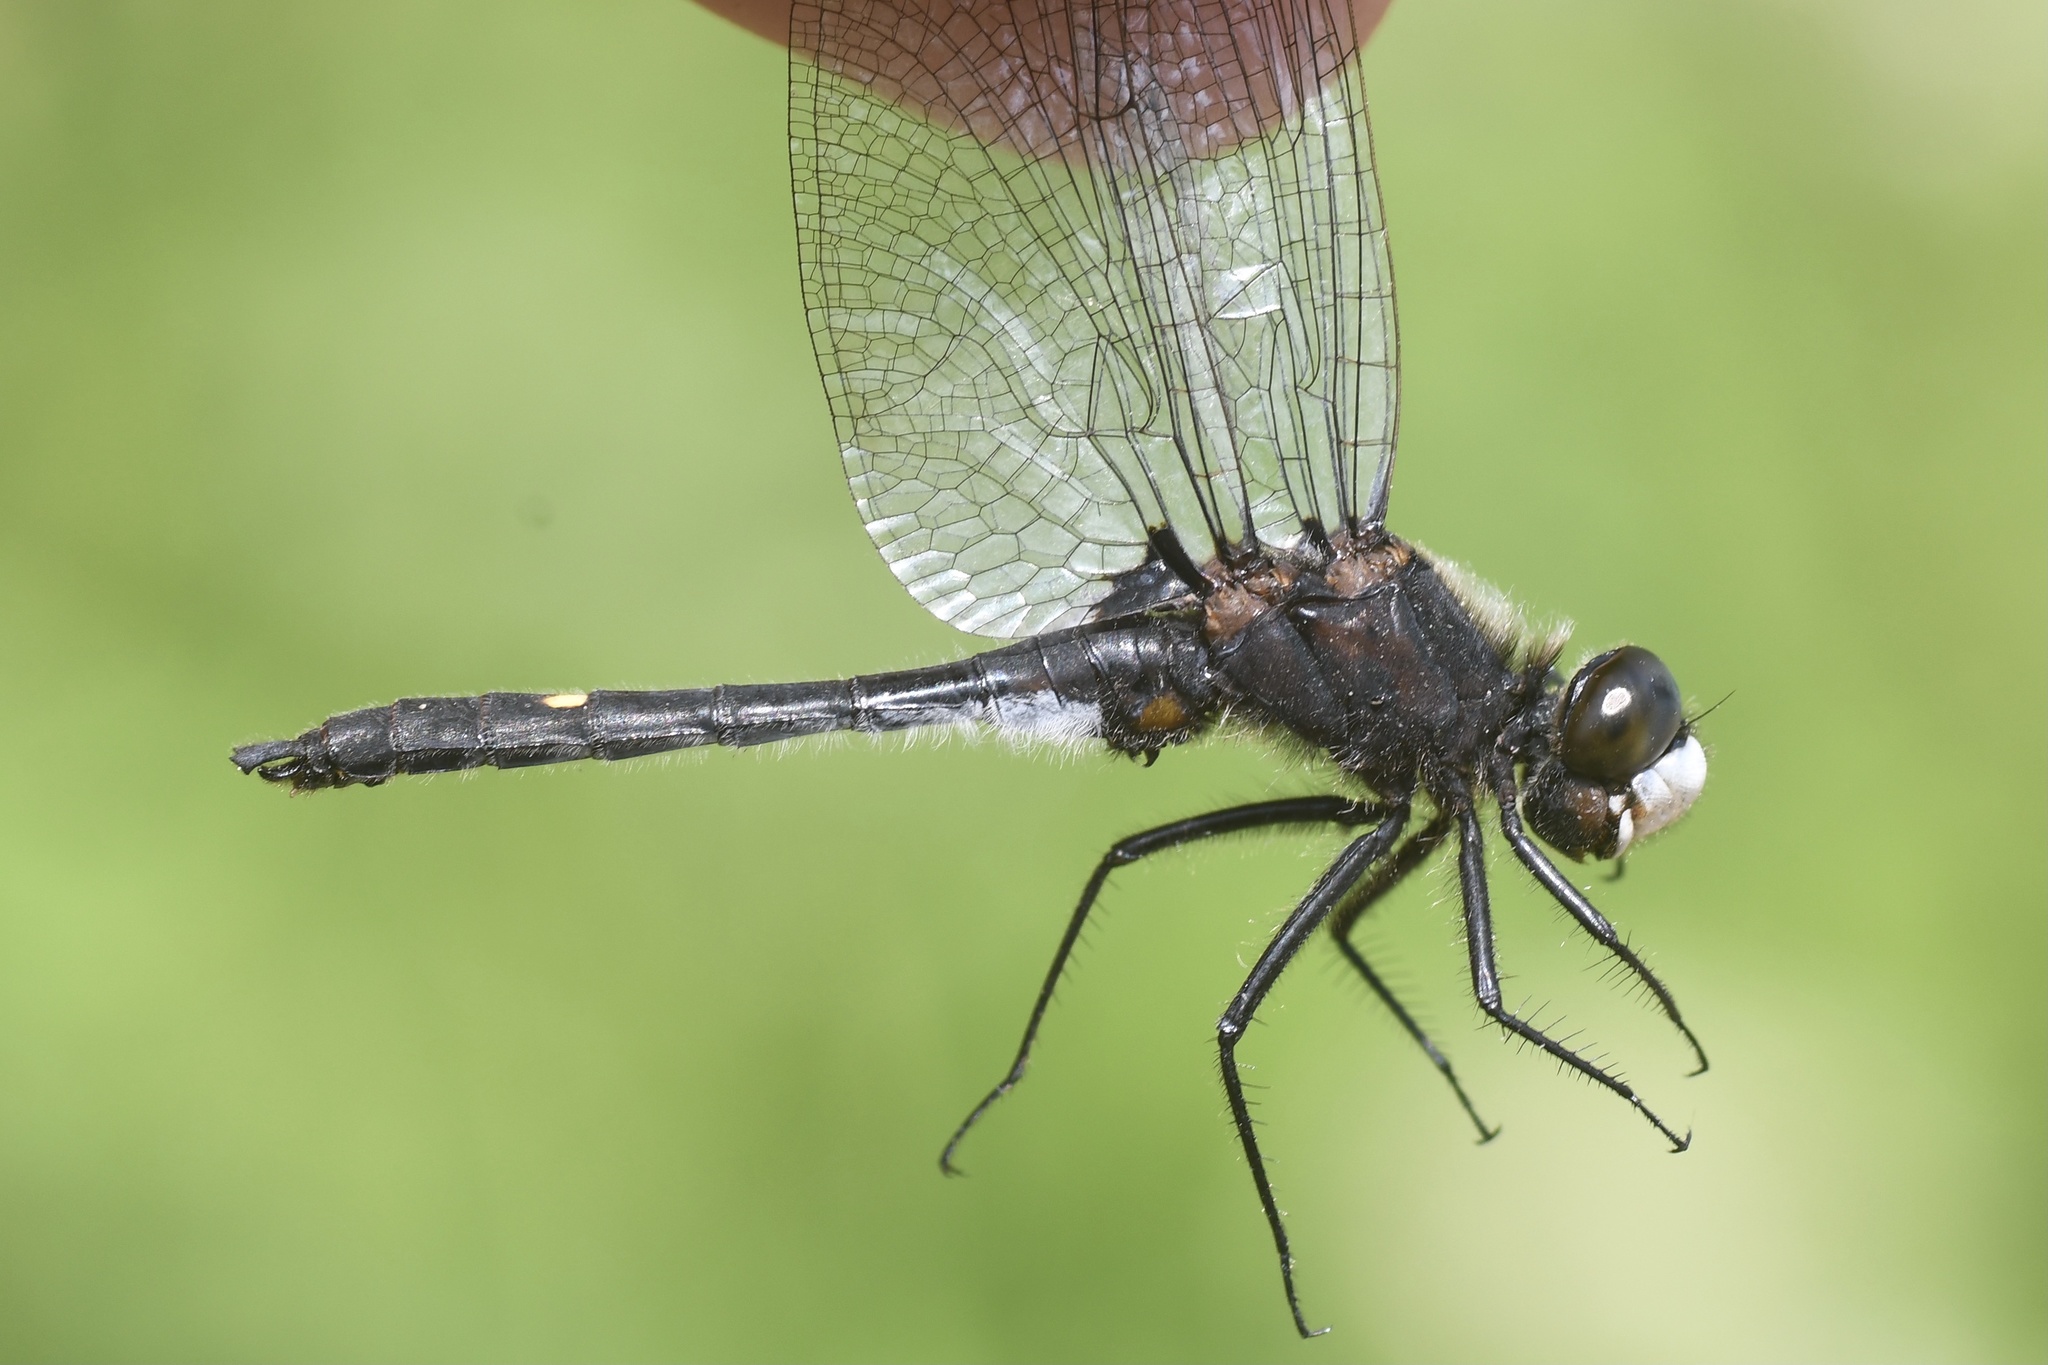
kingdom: Animalia
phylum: Arthropoda
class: Insecta
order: Odonata
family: Libellulidae
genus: Leucorrhinia
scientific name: Leucorrhinia intacta
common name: Dot-tailed whiteface
